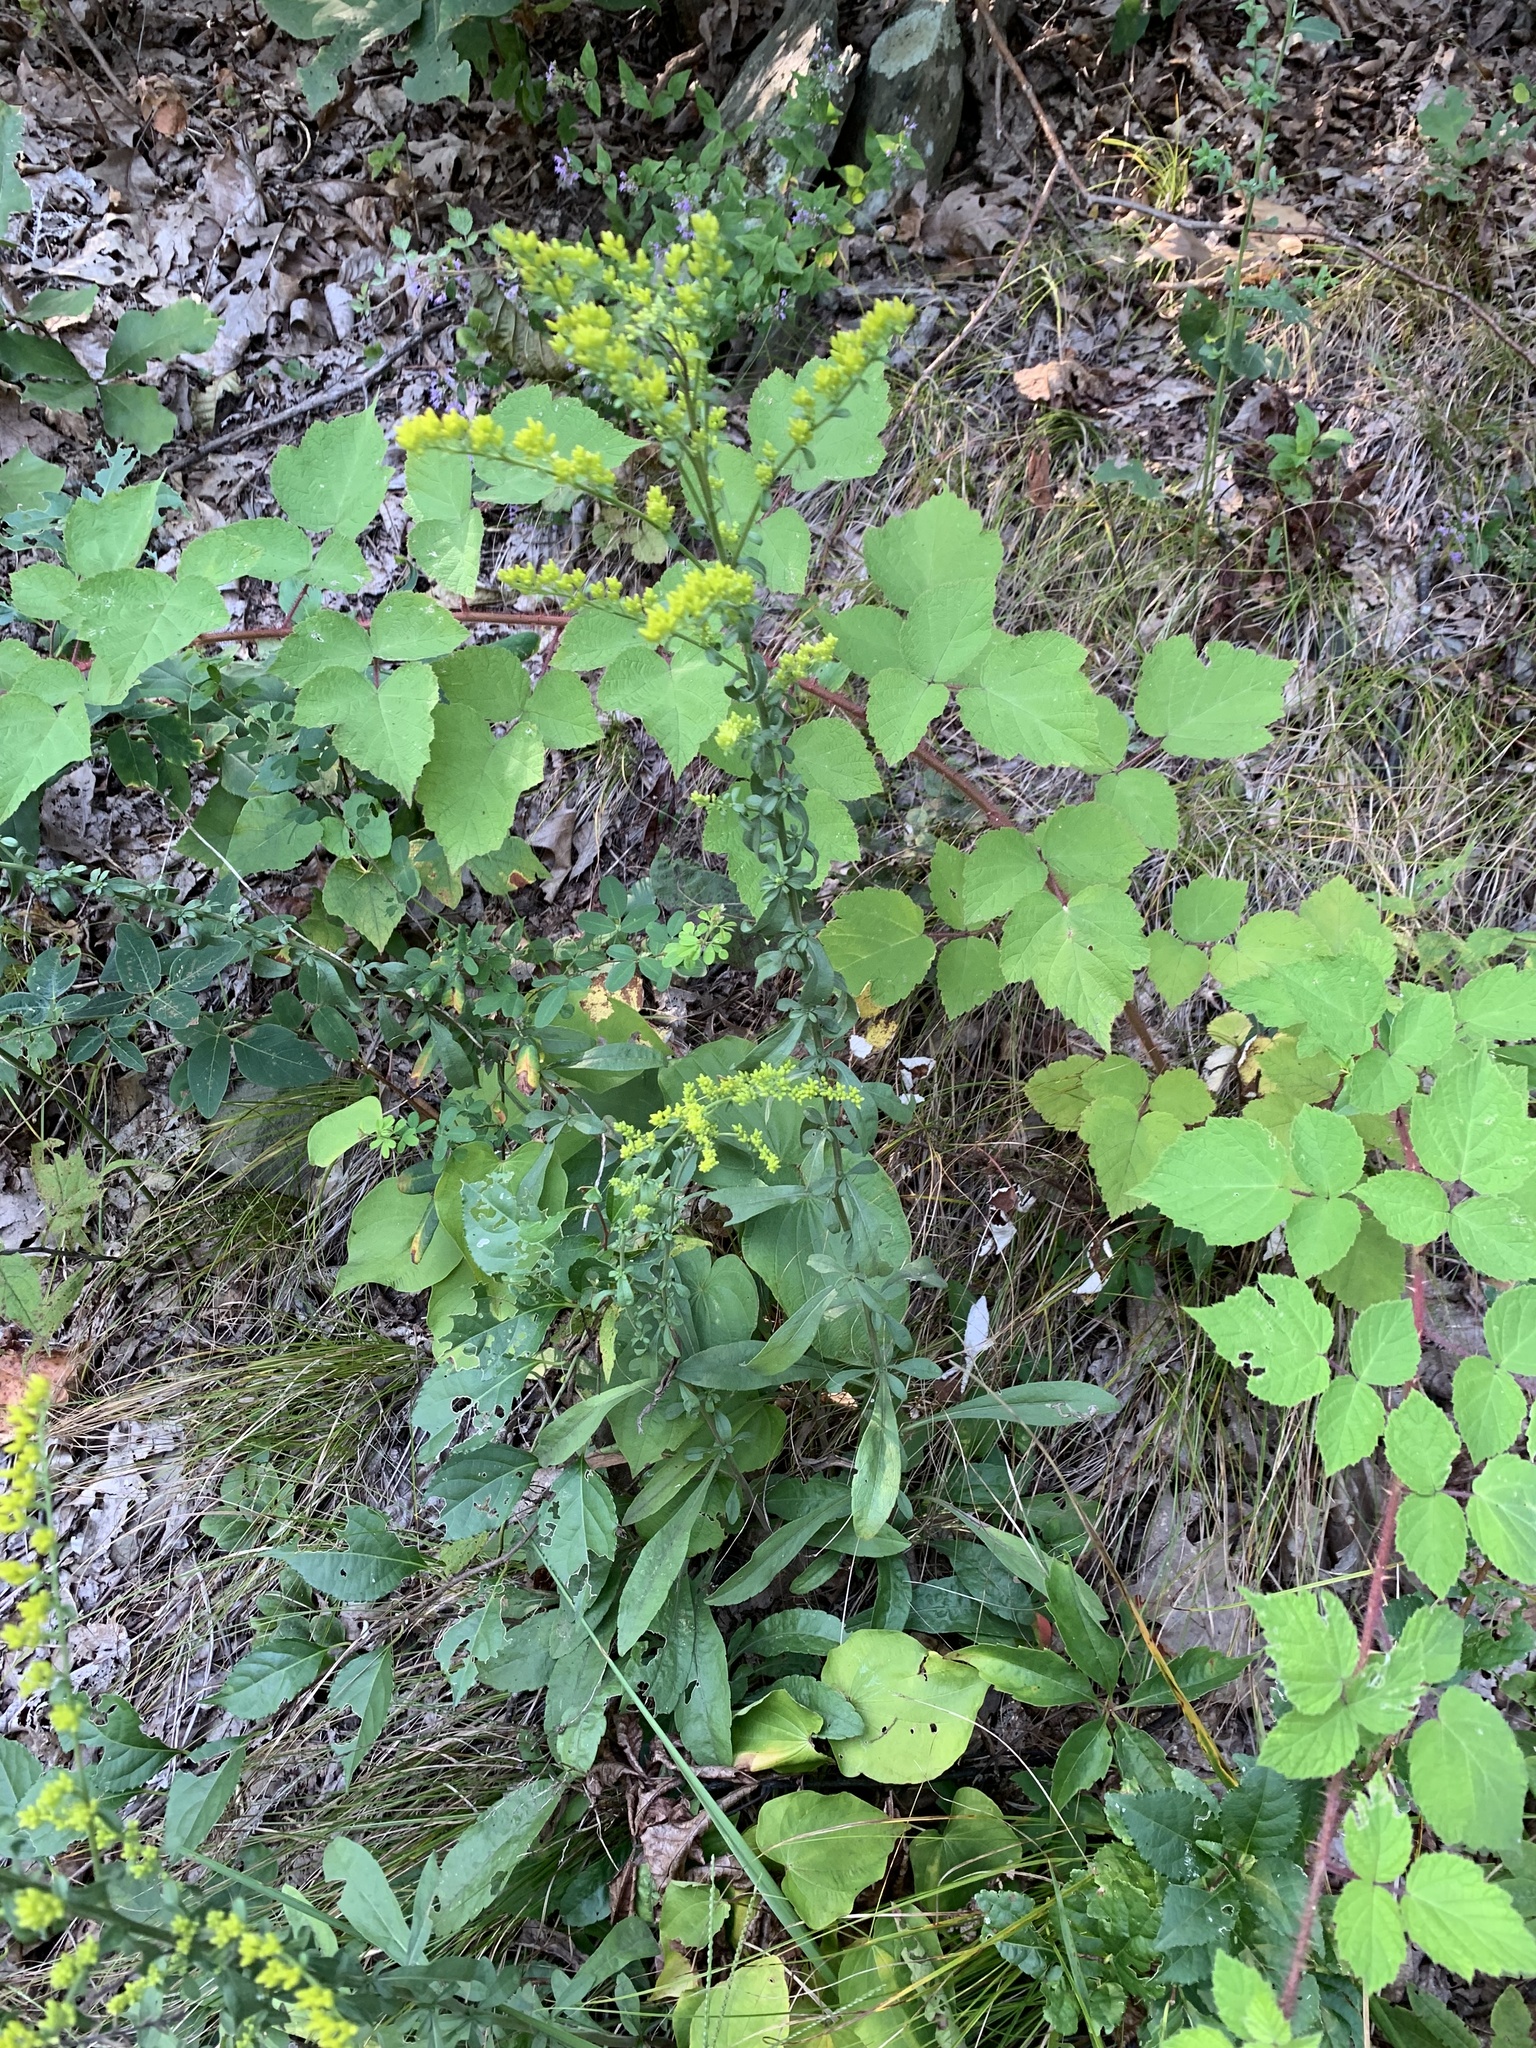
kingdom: Plantae
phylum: Tracheophyta
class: Magnoliopsida
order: Asterales
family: Asteraceae
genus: Solidago
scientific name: Solidago nemoralis
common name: Grey goldenrod
